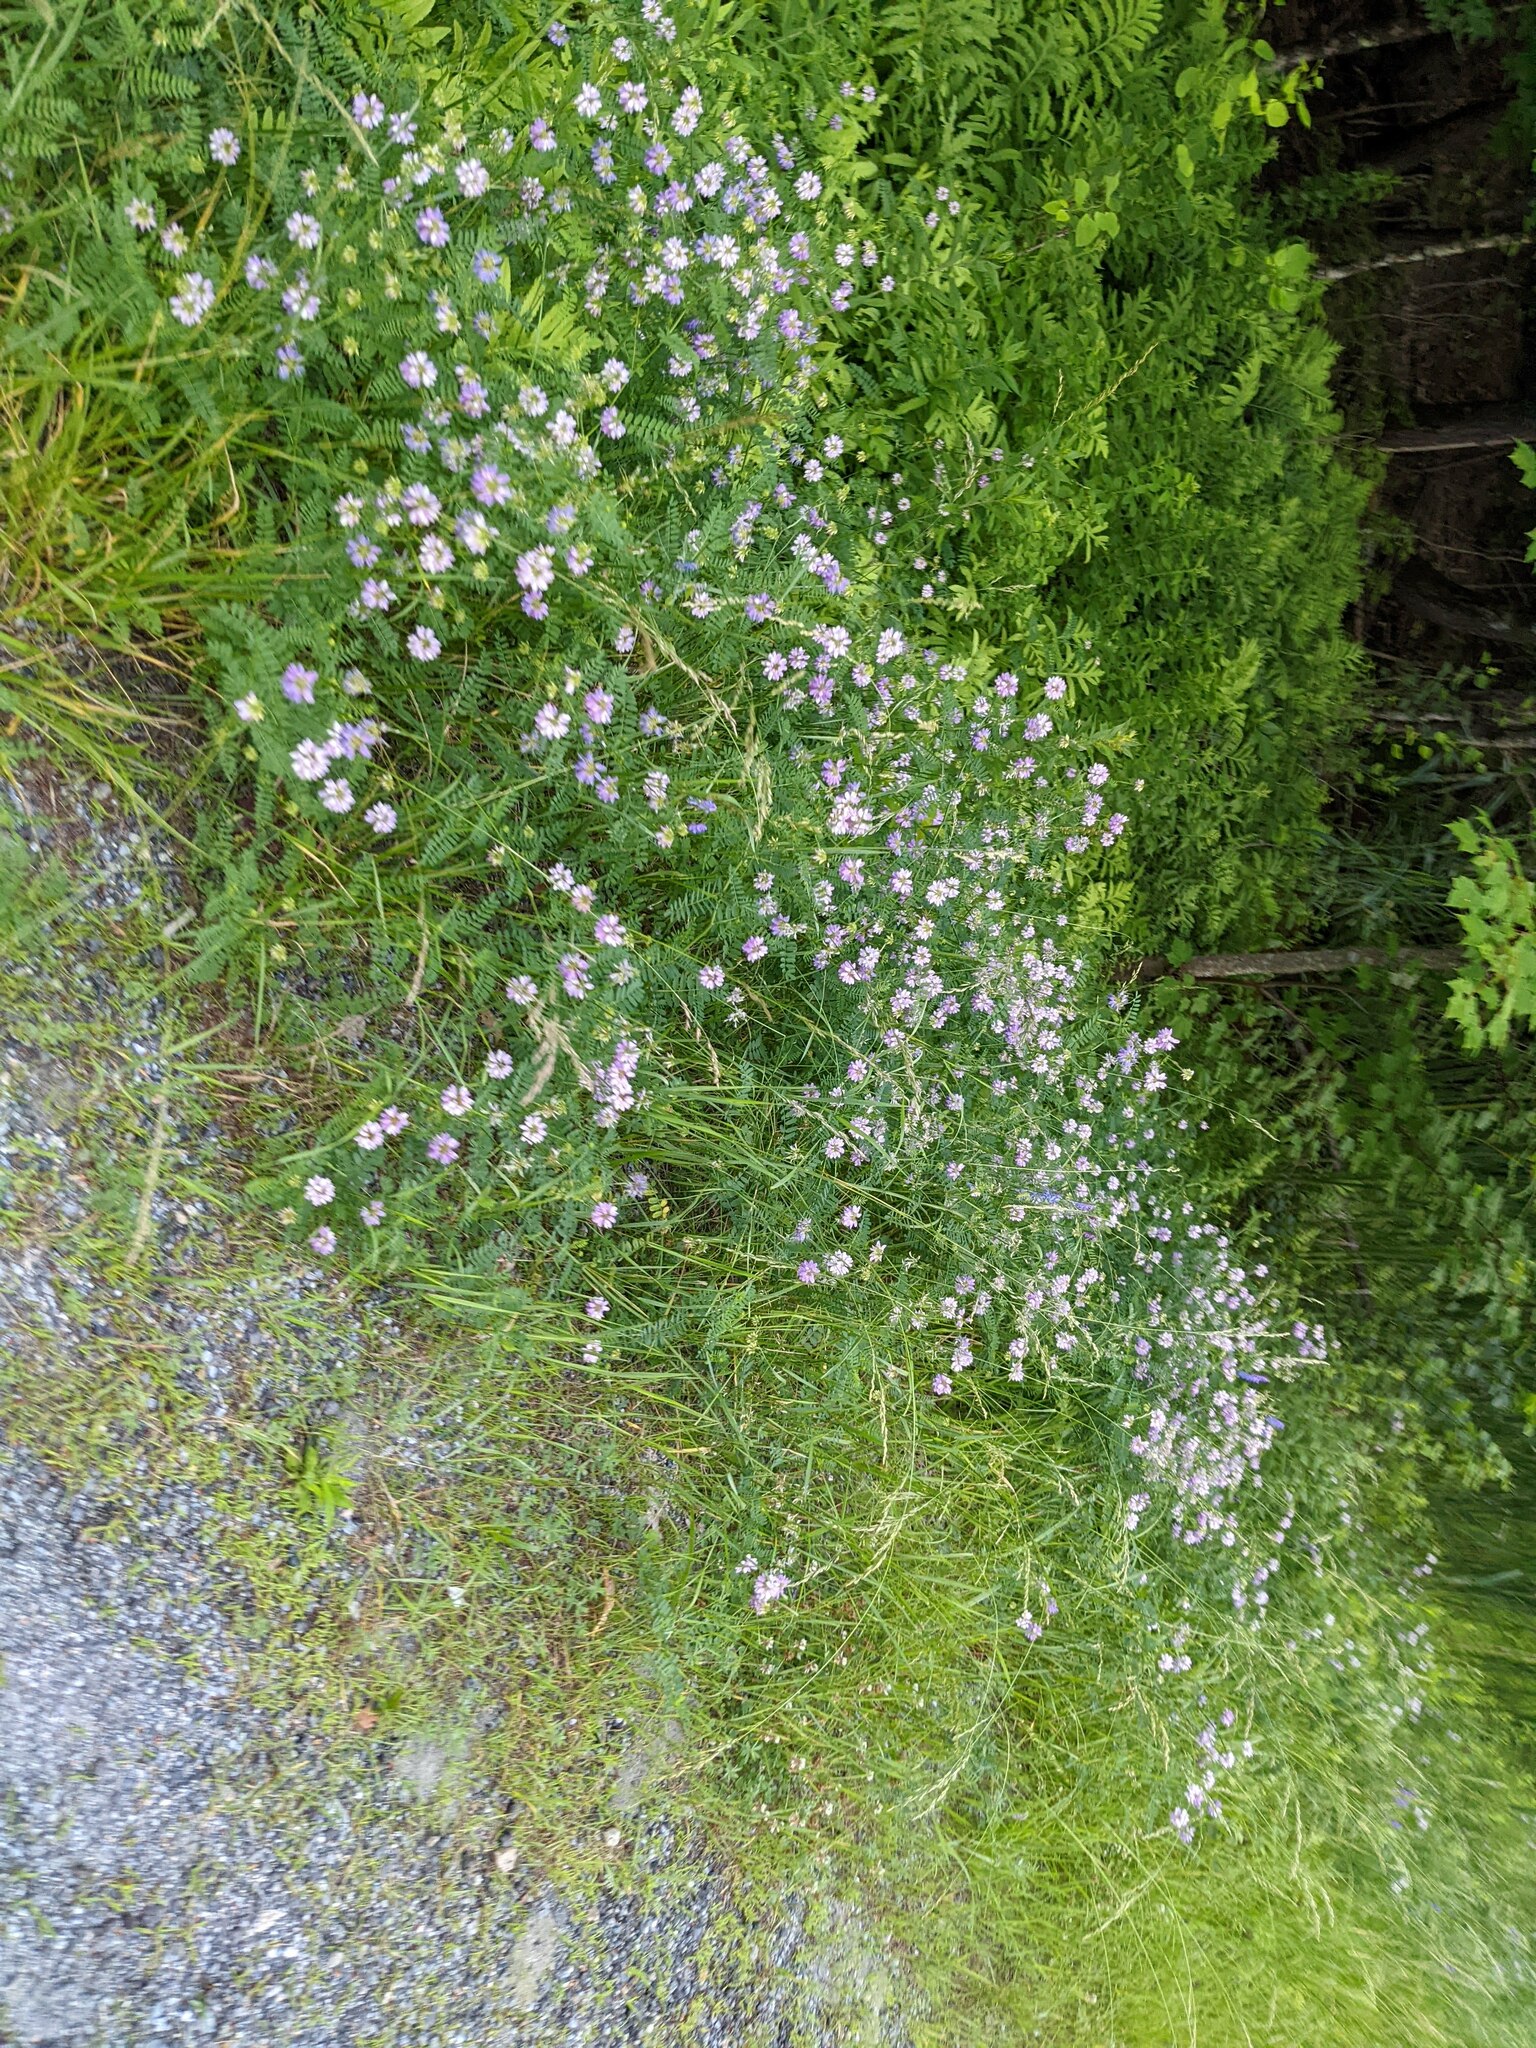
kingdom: Plantae
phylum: Tracheophyta
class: Magnoliopsida
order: Fabales
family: Fabaceae
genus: Coronilla
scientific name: Coronilla varia
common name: Crownvetch
